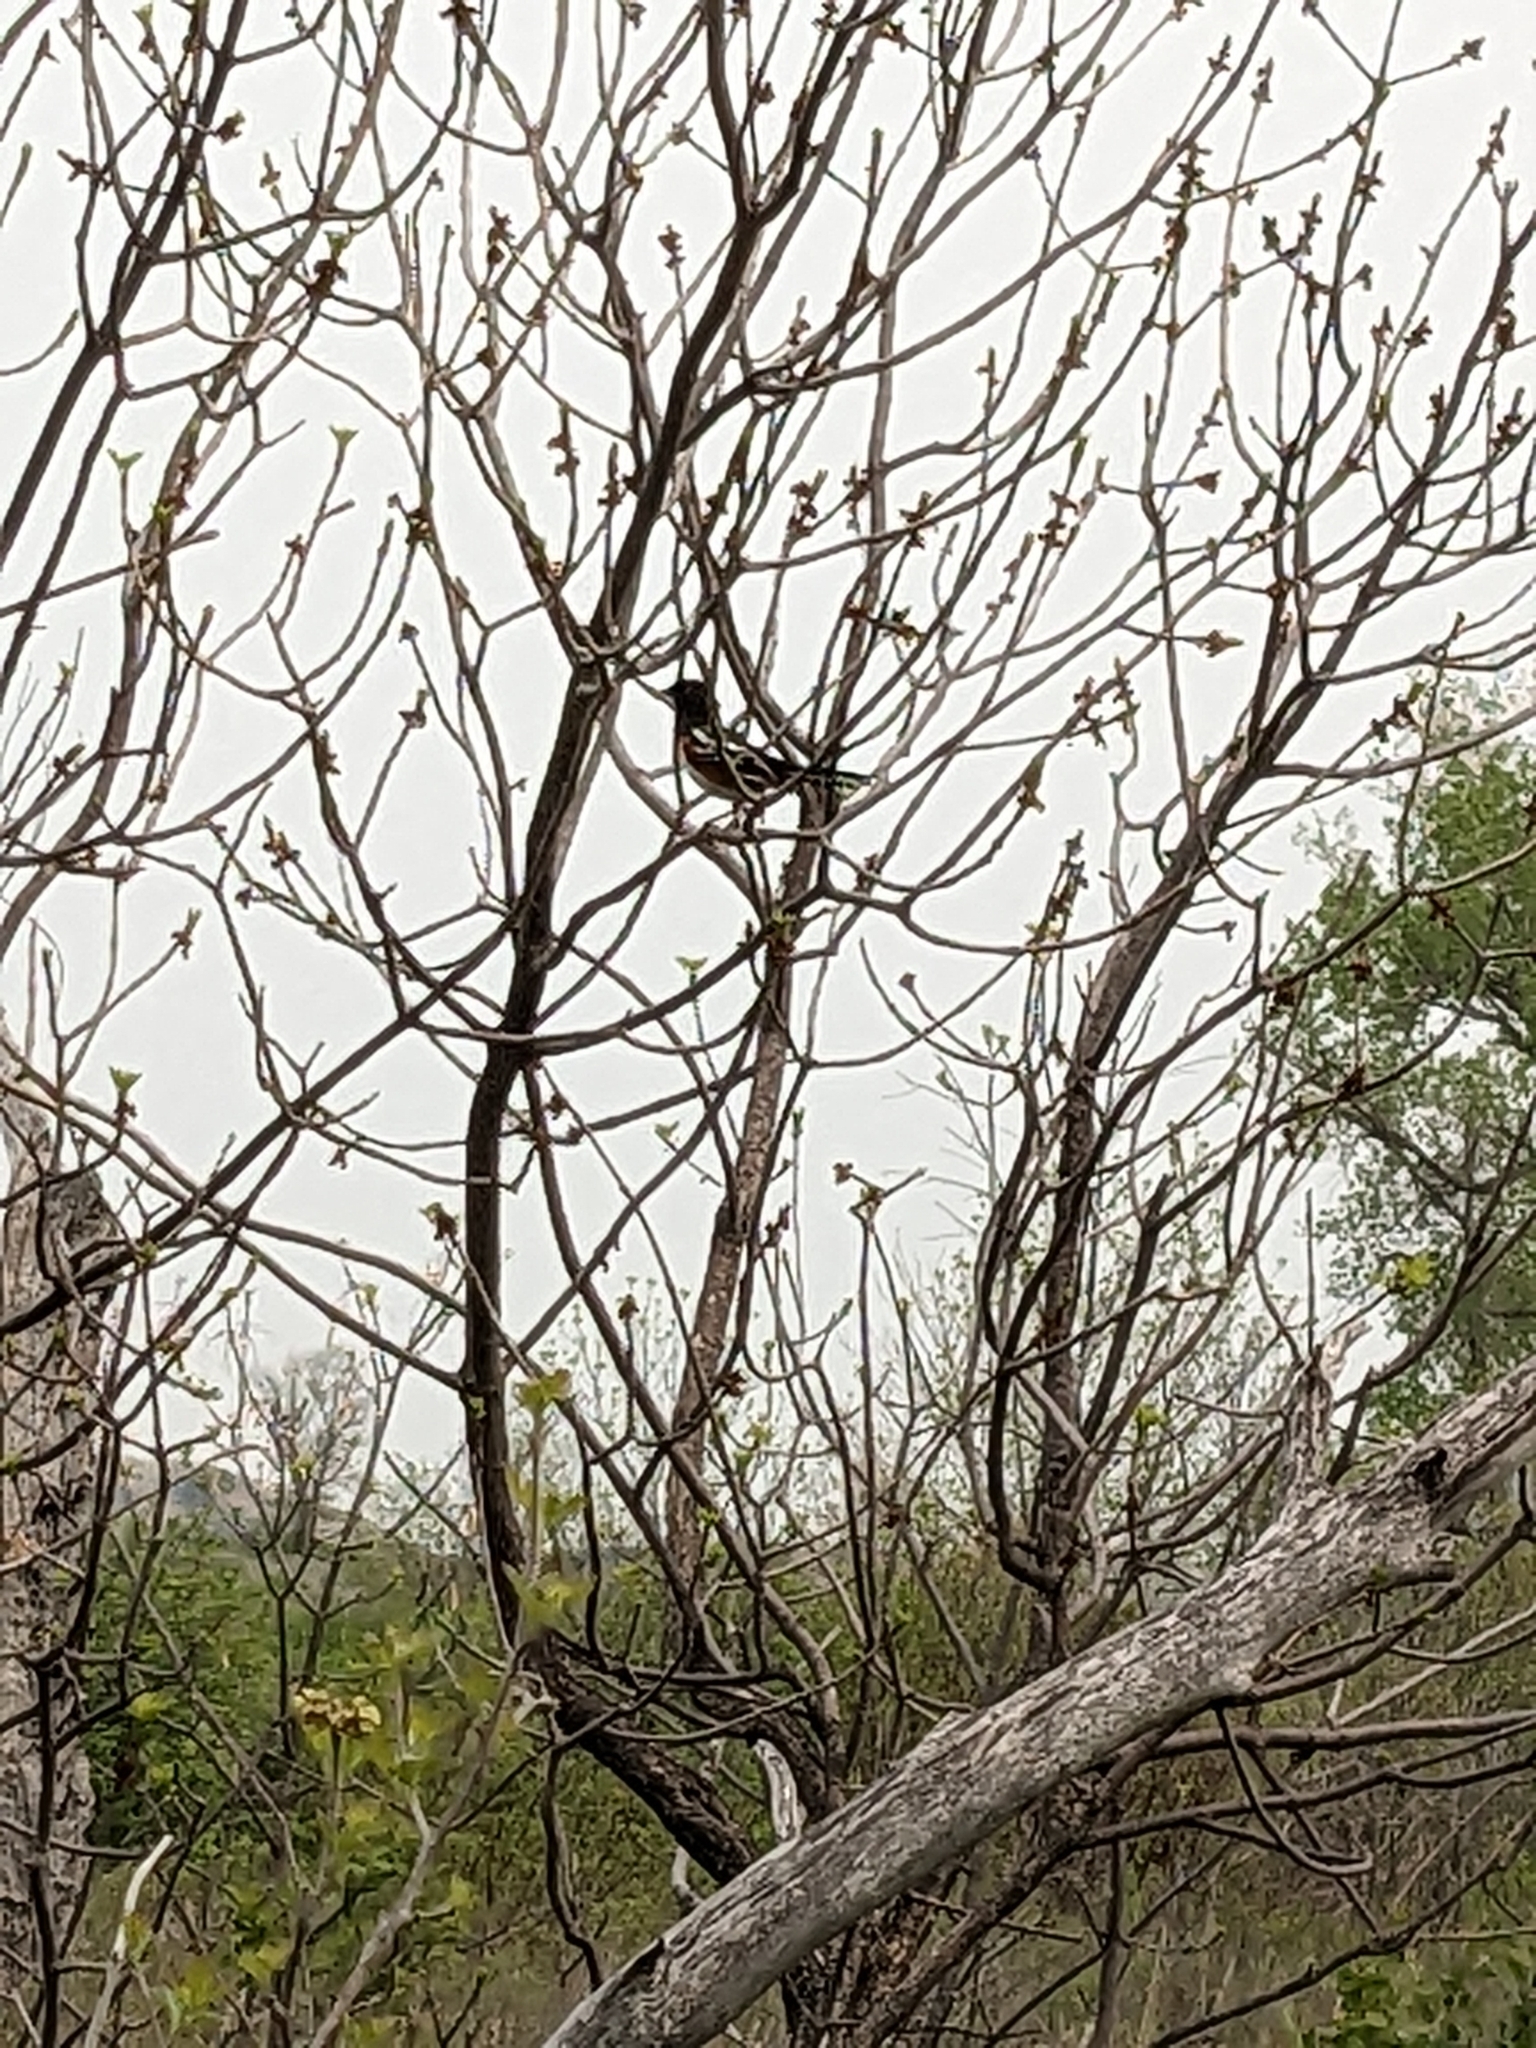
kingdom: Animalia
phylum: Chordata
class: Aves
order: Passeriformes
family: Passerellidae
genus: Pipilo
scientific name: Pipilo maculatus
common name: Spotted towhee
